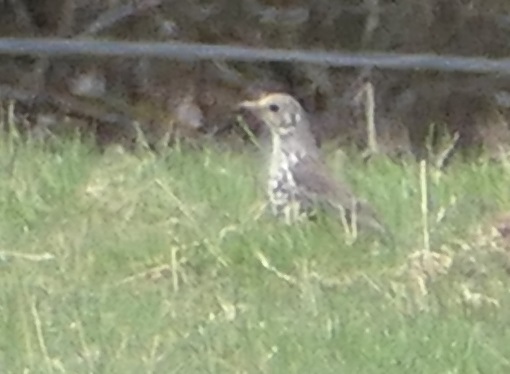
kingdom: Animalia
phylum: Chordata
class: Aves
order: Passeriformes
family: Turdidae
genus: Turdus
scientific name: Turdus viscivorus
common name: Mistle thrush
